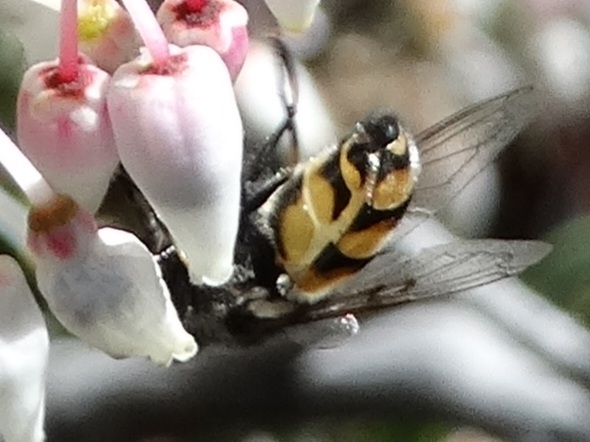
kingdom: Animalia
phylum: Arthropoda
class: Insecta
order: Diptera
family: Syrphidae
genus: Copestylum
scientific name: Copestylum avidum
